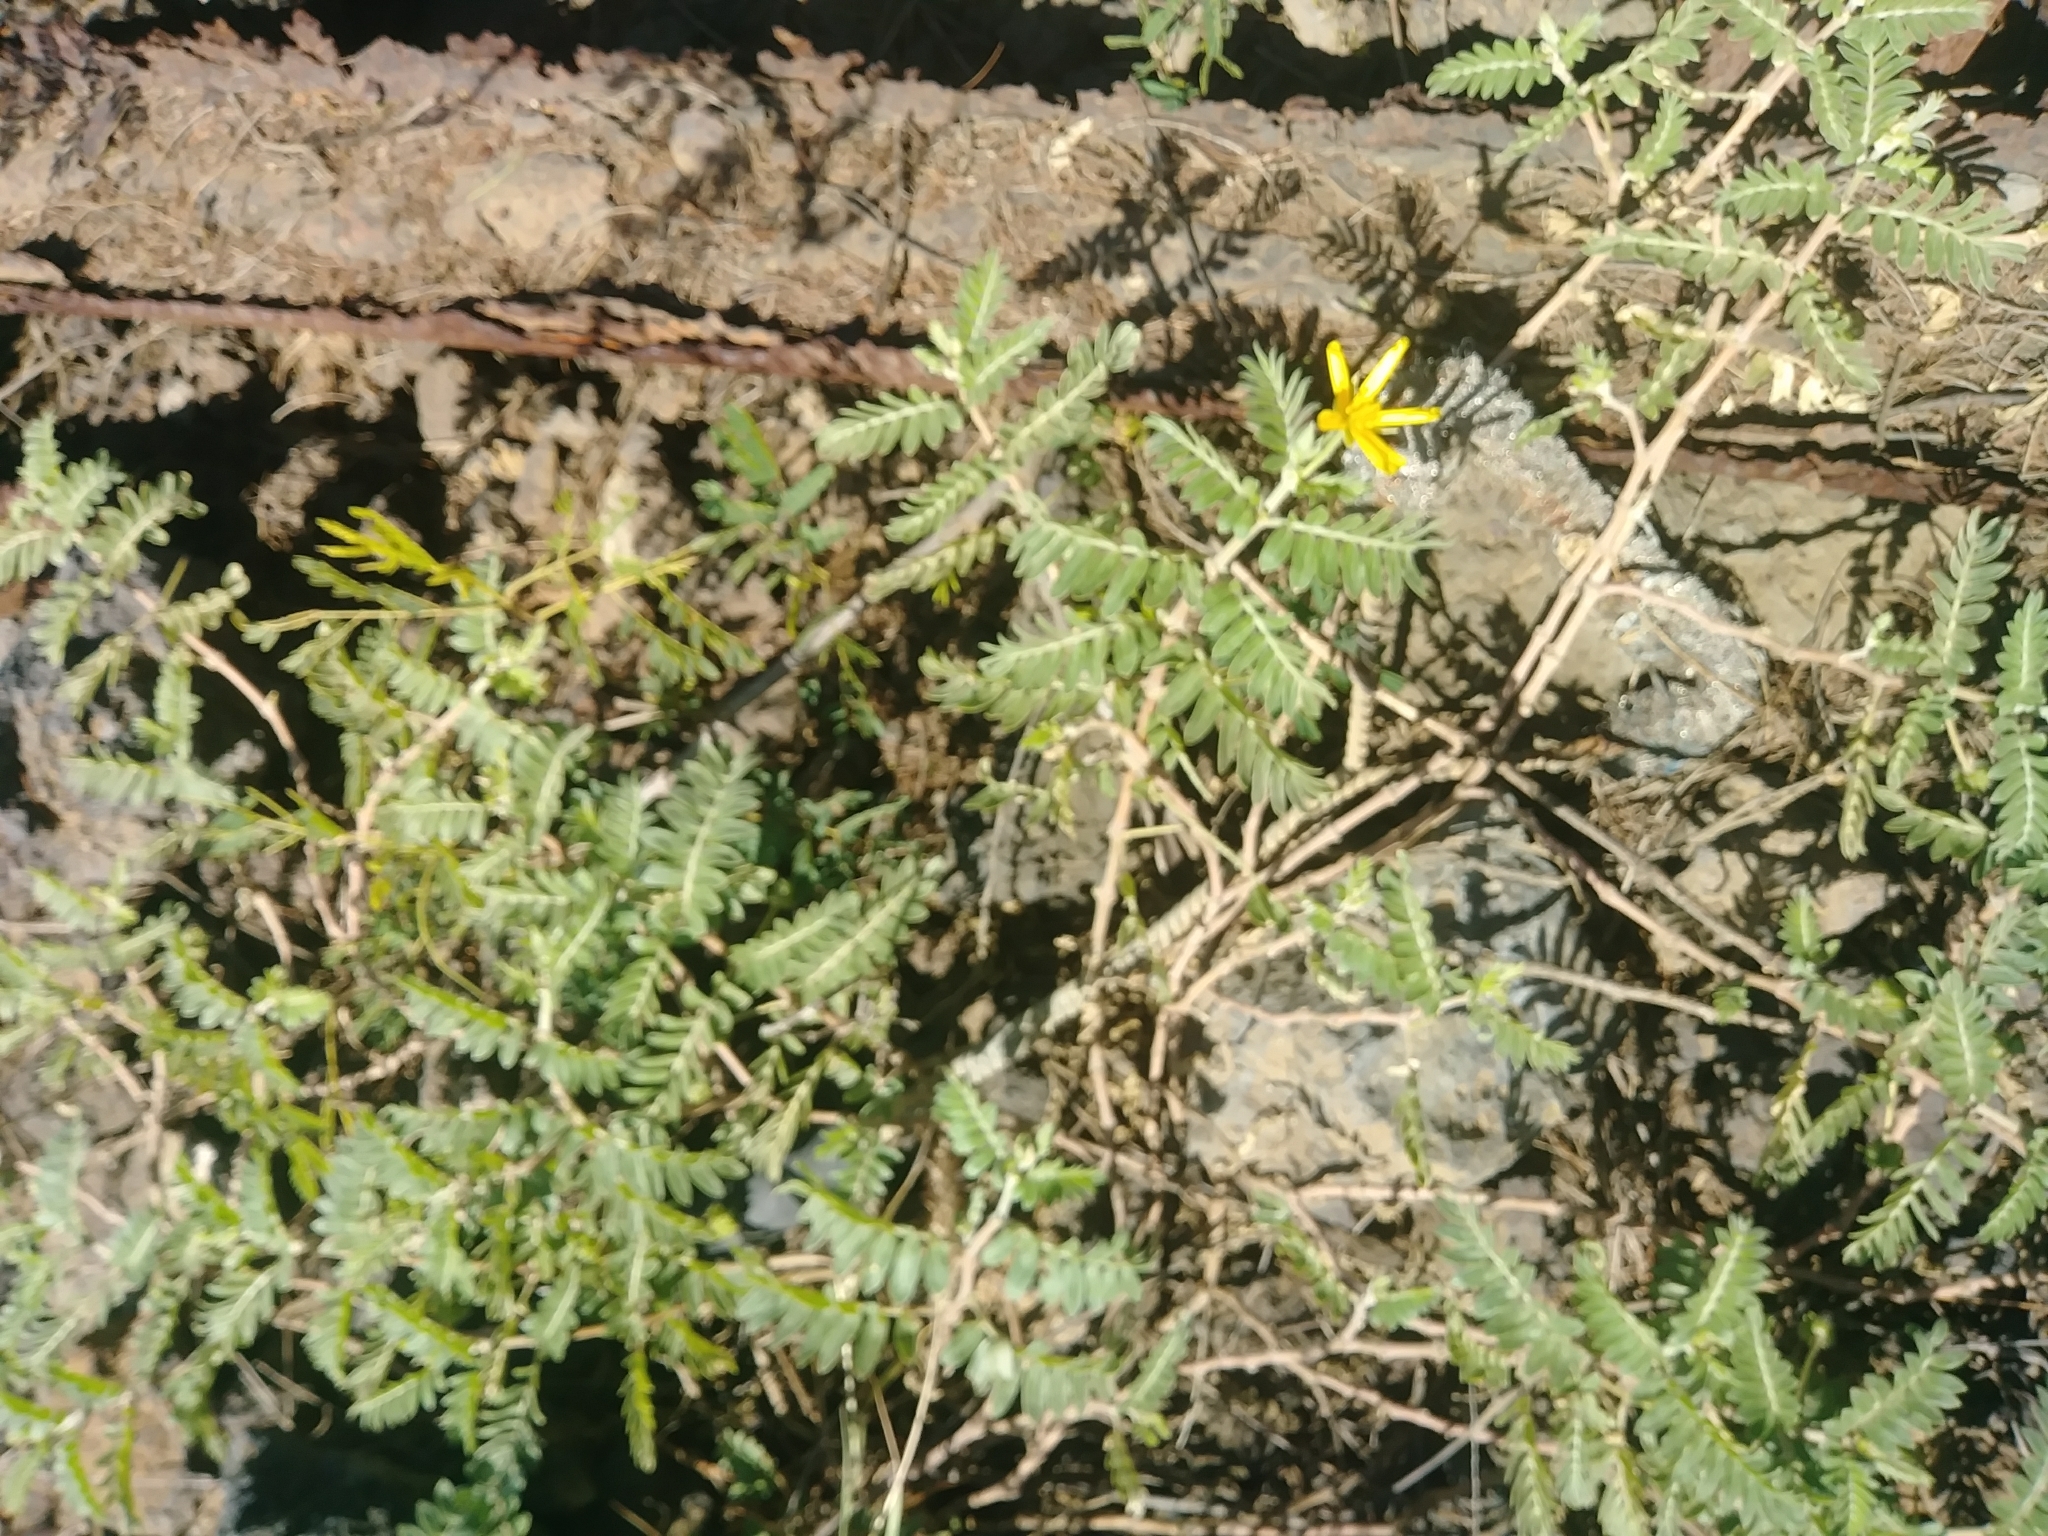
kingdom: Plantae
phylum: Tracheophyta
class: Magnoliopsida
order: Zygophyllales
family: Zygophyllaceae
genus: Tribulus
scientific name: Tribulus cistoides
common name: Jamaican feverplant
